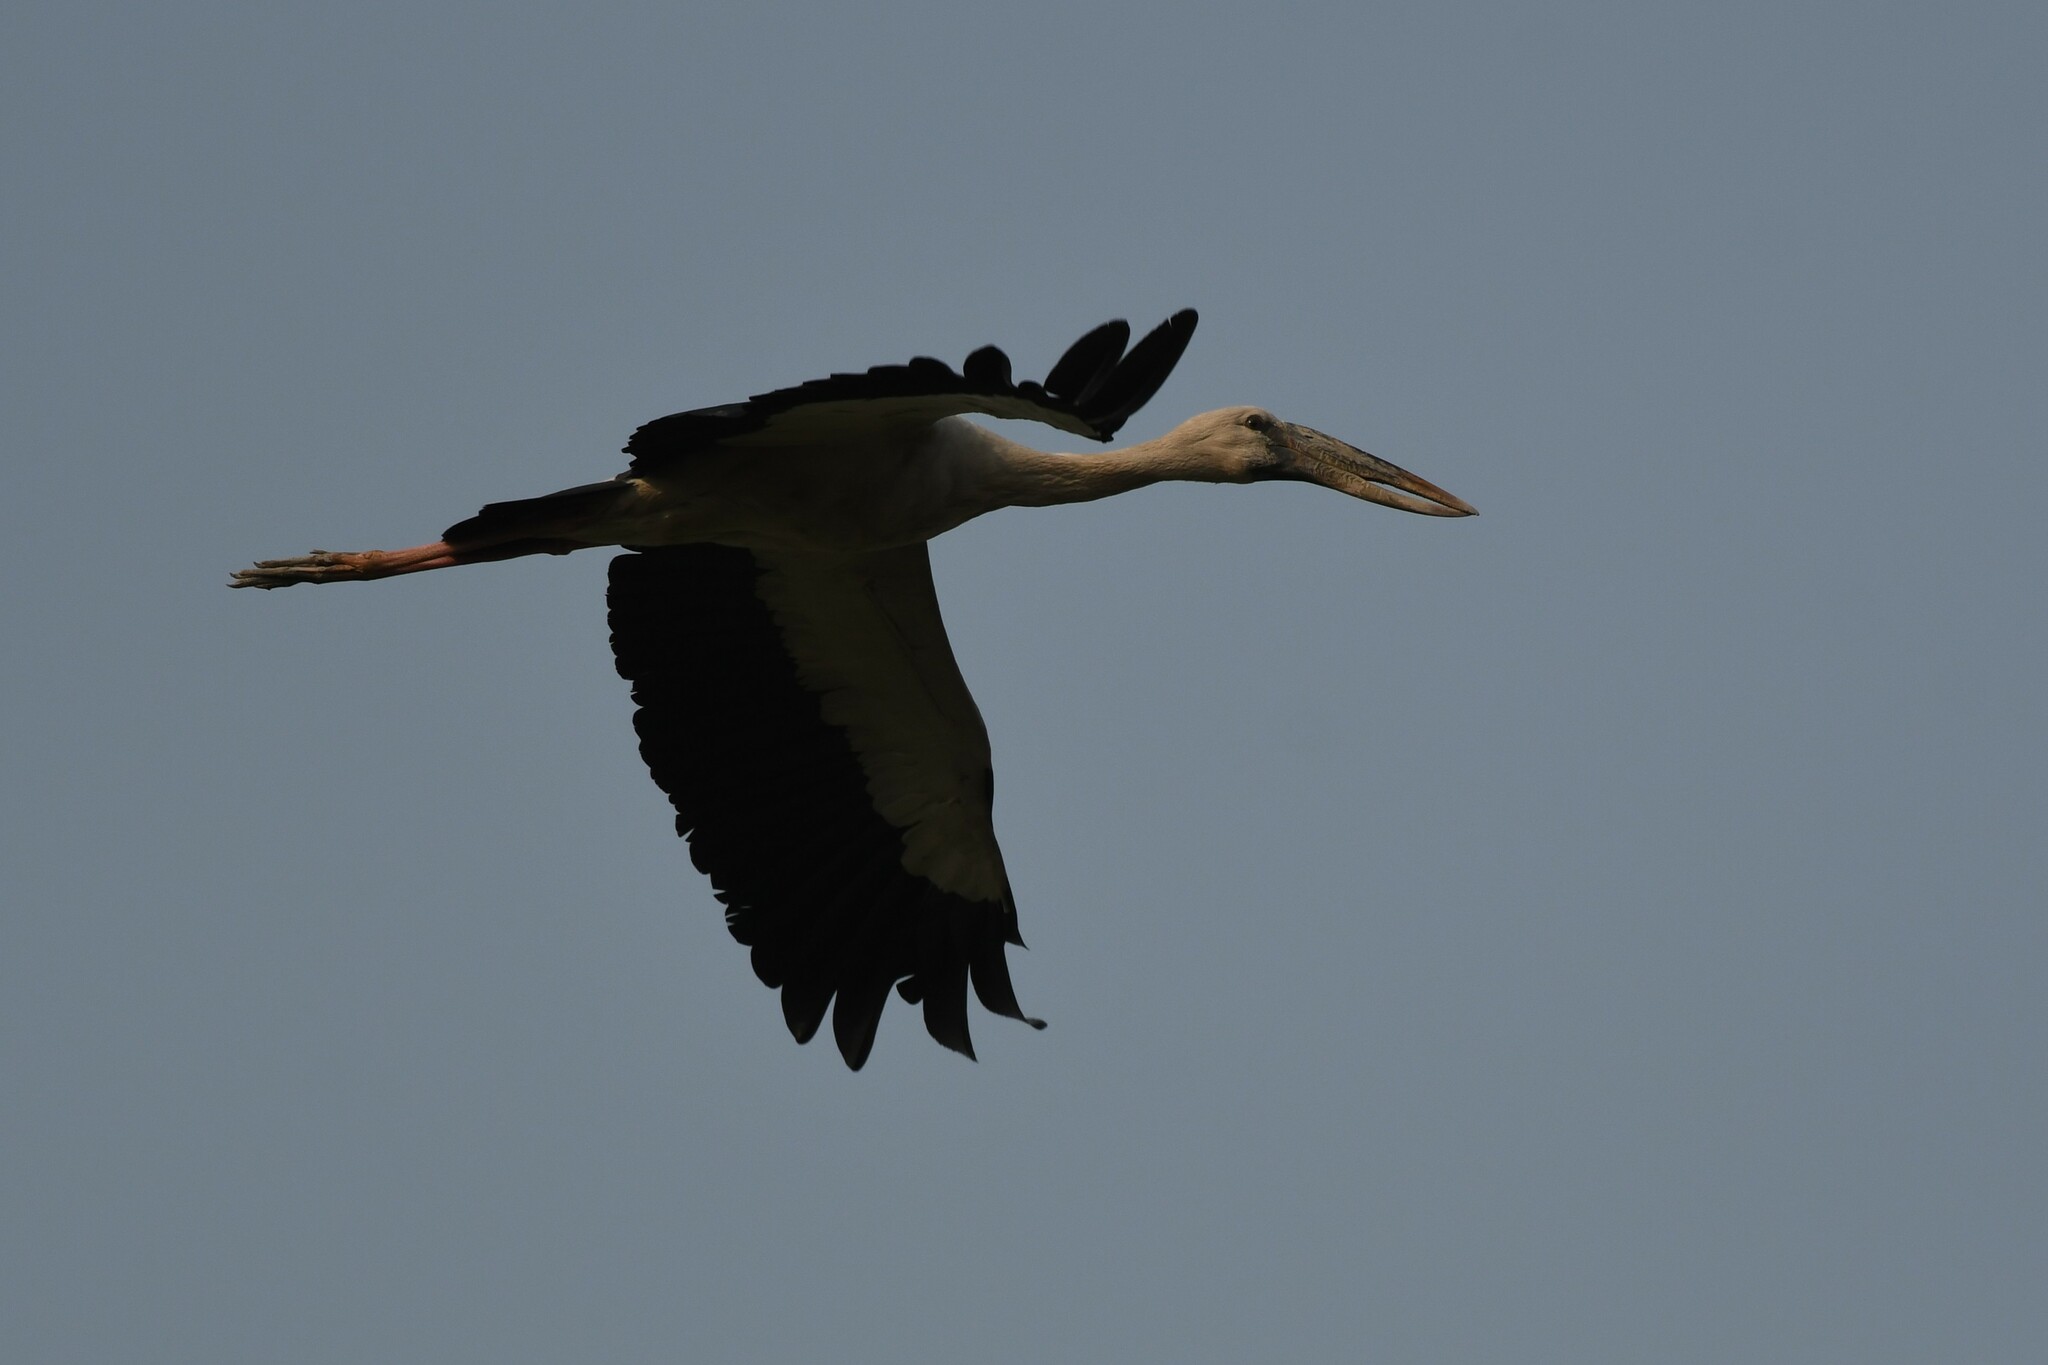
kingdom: Animalia
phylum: Chordata
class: Aves
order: Ciconiiformes
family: Ciconiidae
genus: Anastomus
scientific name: Anastomus oscitans
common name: Asian openbill
